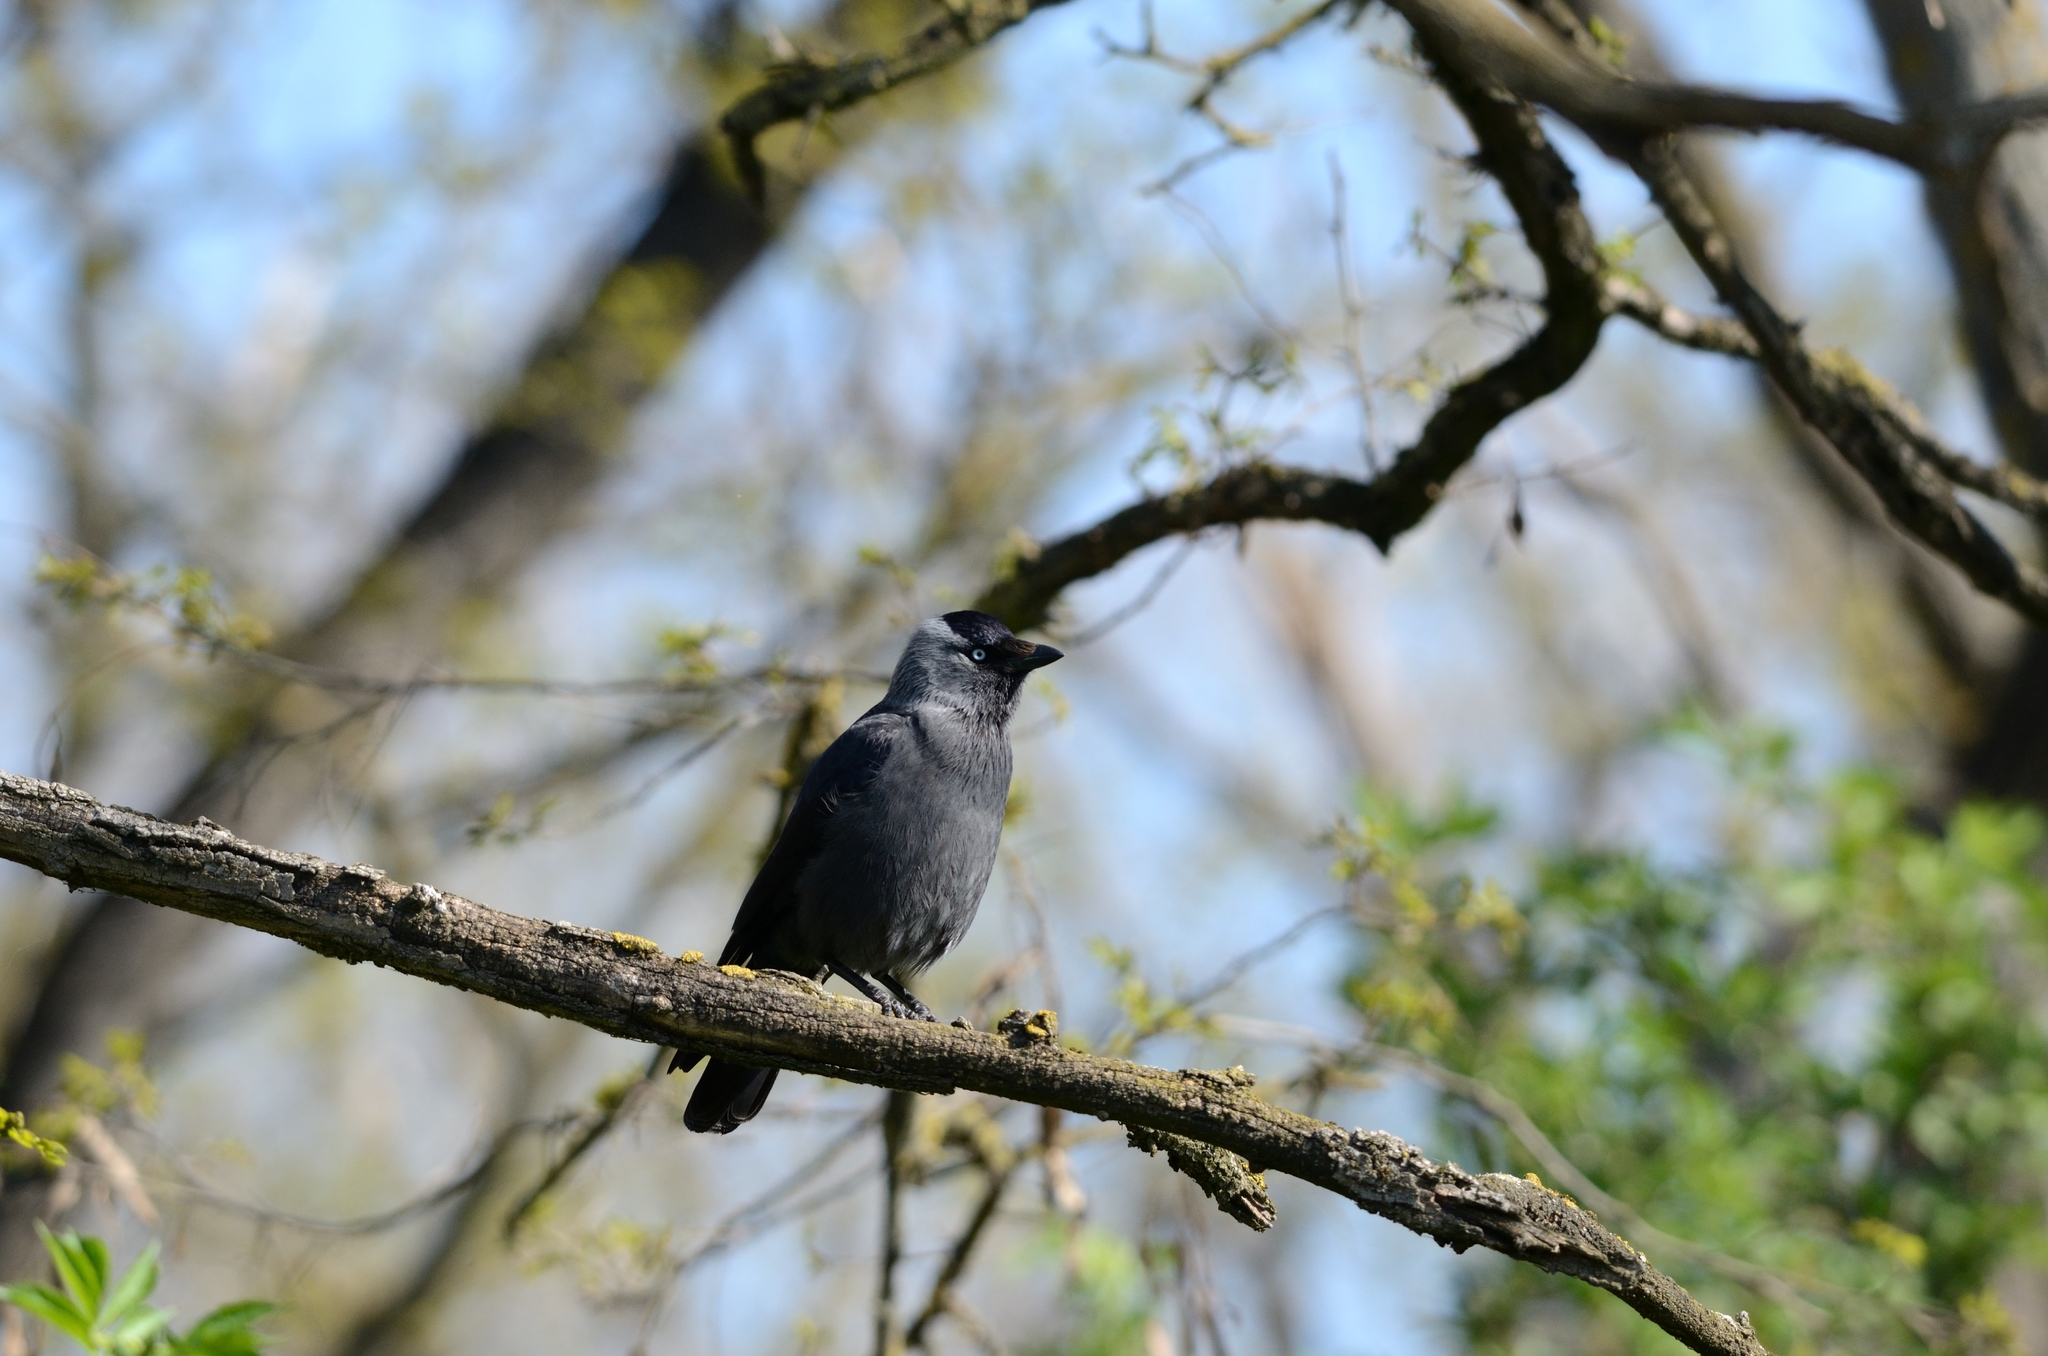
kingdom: Animalia
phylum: Chordata
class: Aves
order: Passeriformes
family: Corvidae
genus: Coloeus
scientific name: Coloeus monedula
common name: Western jackdaw
